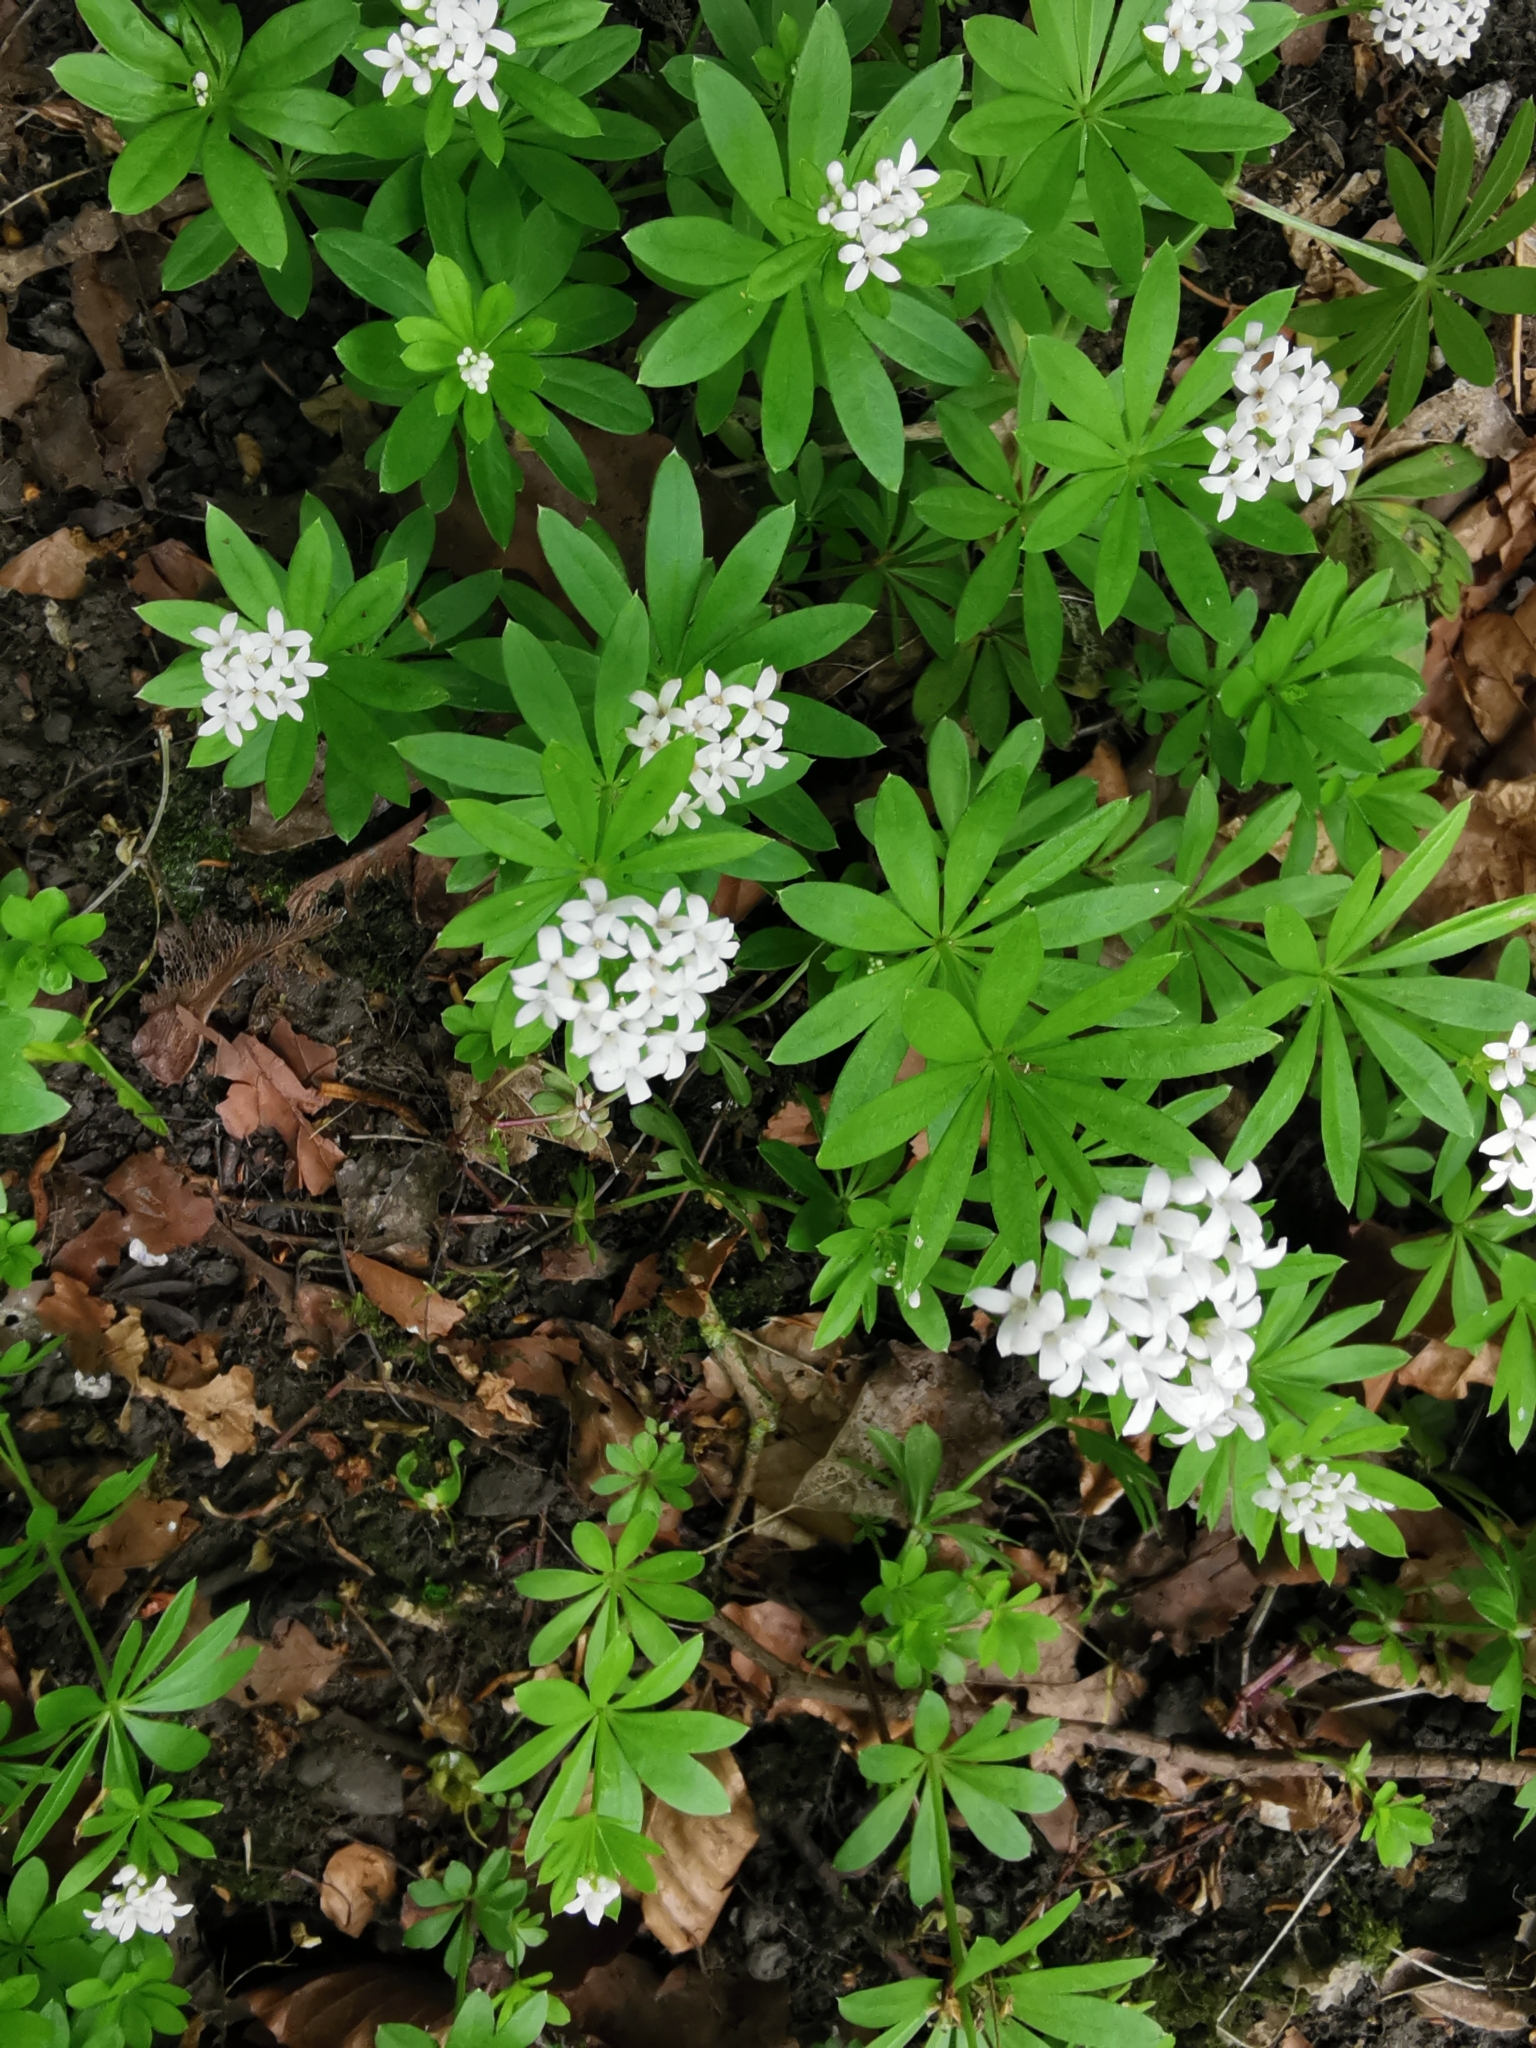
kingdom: Plantae
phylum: Tracheophyta
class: Magnoliopsida
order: Gentianales
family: Rubiaceae
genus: Galium
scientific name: Galium odoratum
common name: Sweet woodruff
